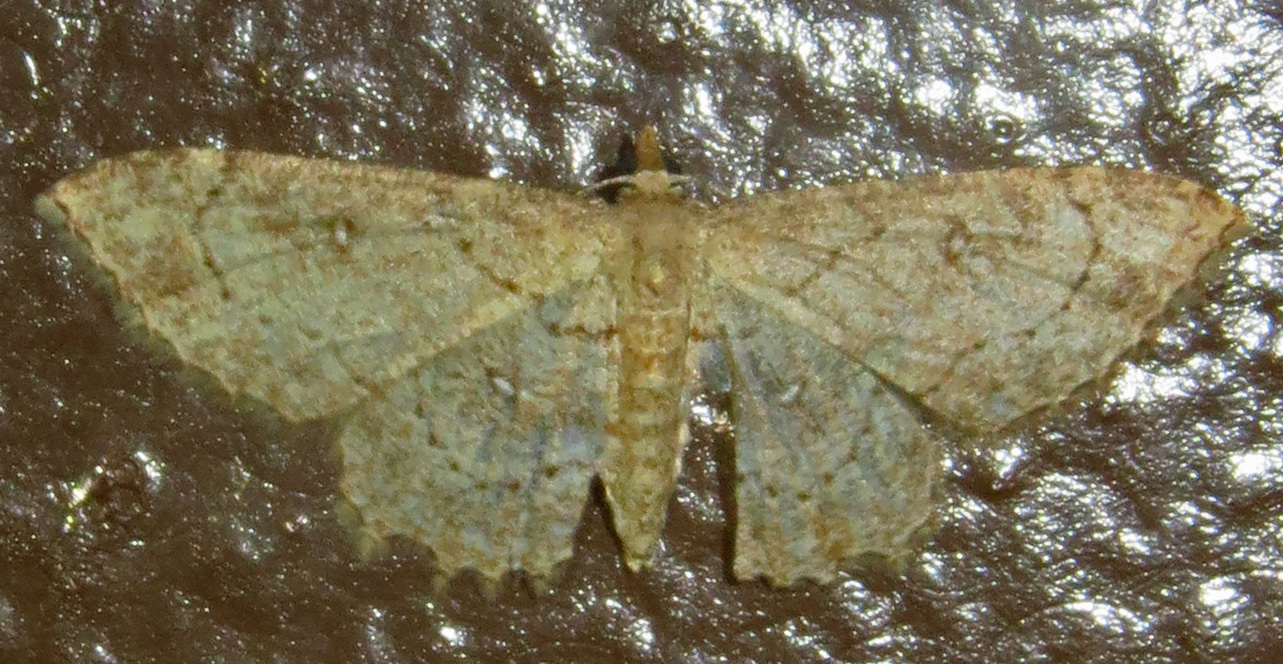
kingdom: Animalia
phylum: Arthropoda
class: Insecta
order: Lepidoptera
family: Geometridae
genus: Cyclophora
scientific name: Cyclophora nanaria
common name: Cankerworm
